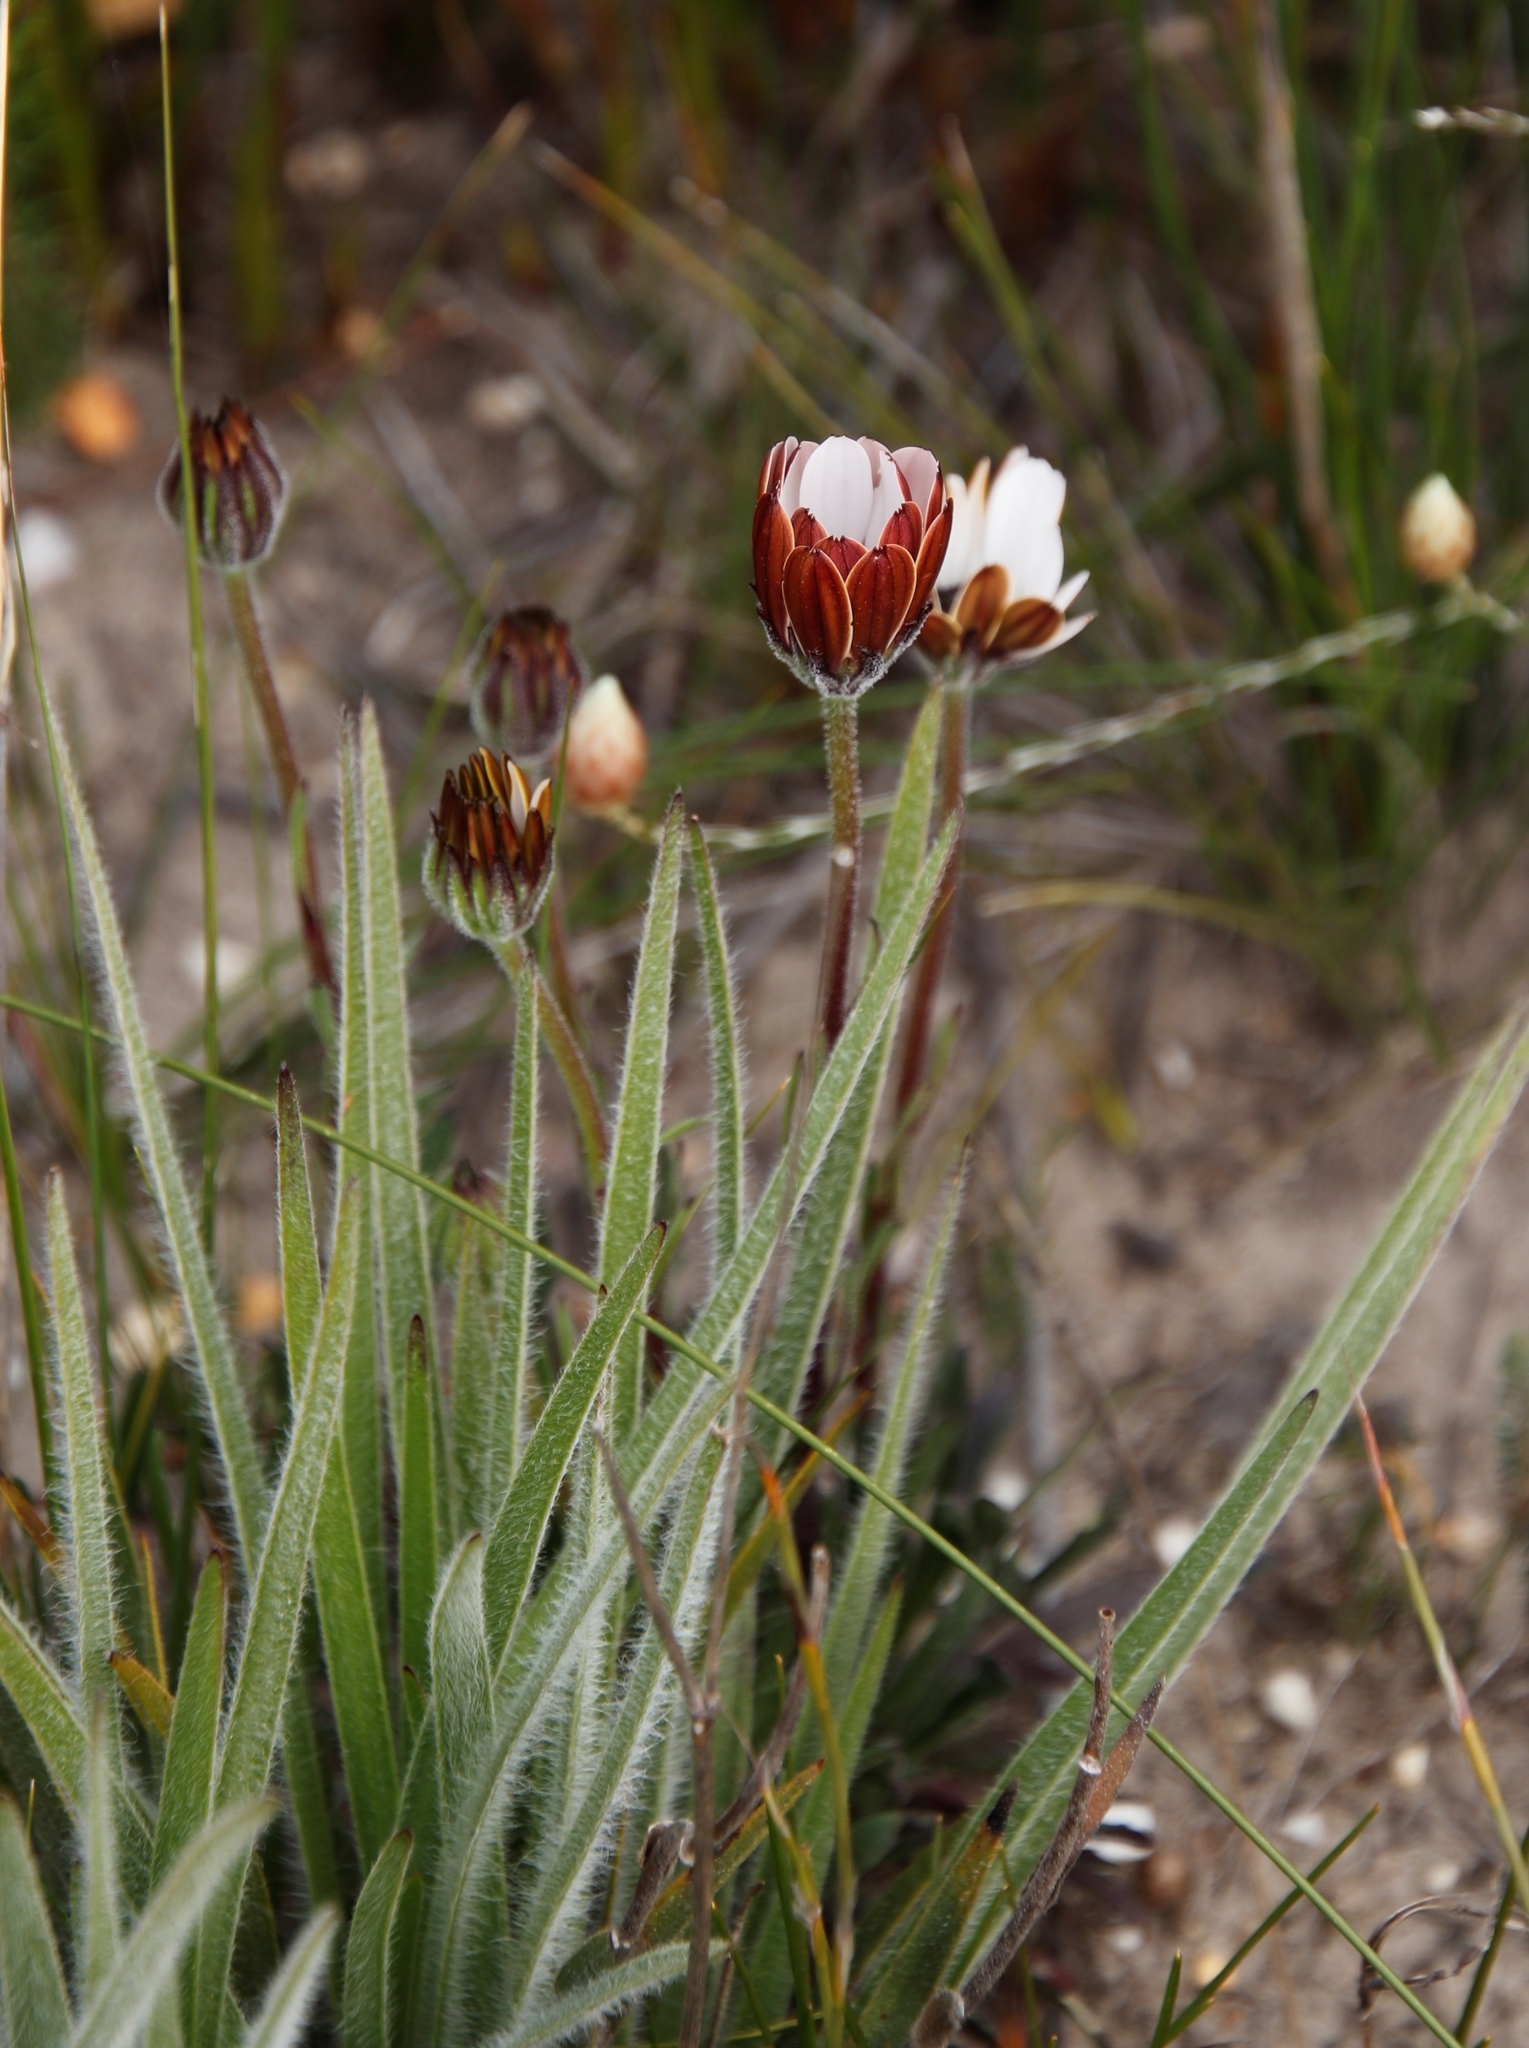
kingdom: Plantae
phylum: Tracheophyta
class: Magnoliopsida
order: Asterales
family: Asteraceae
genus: Dimorphotheca
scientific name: Dimorphotheca nudicaulis
